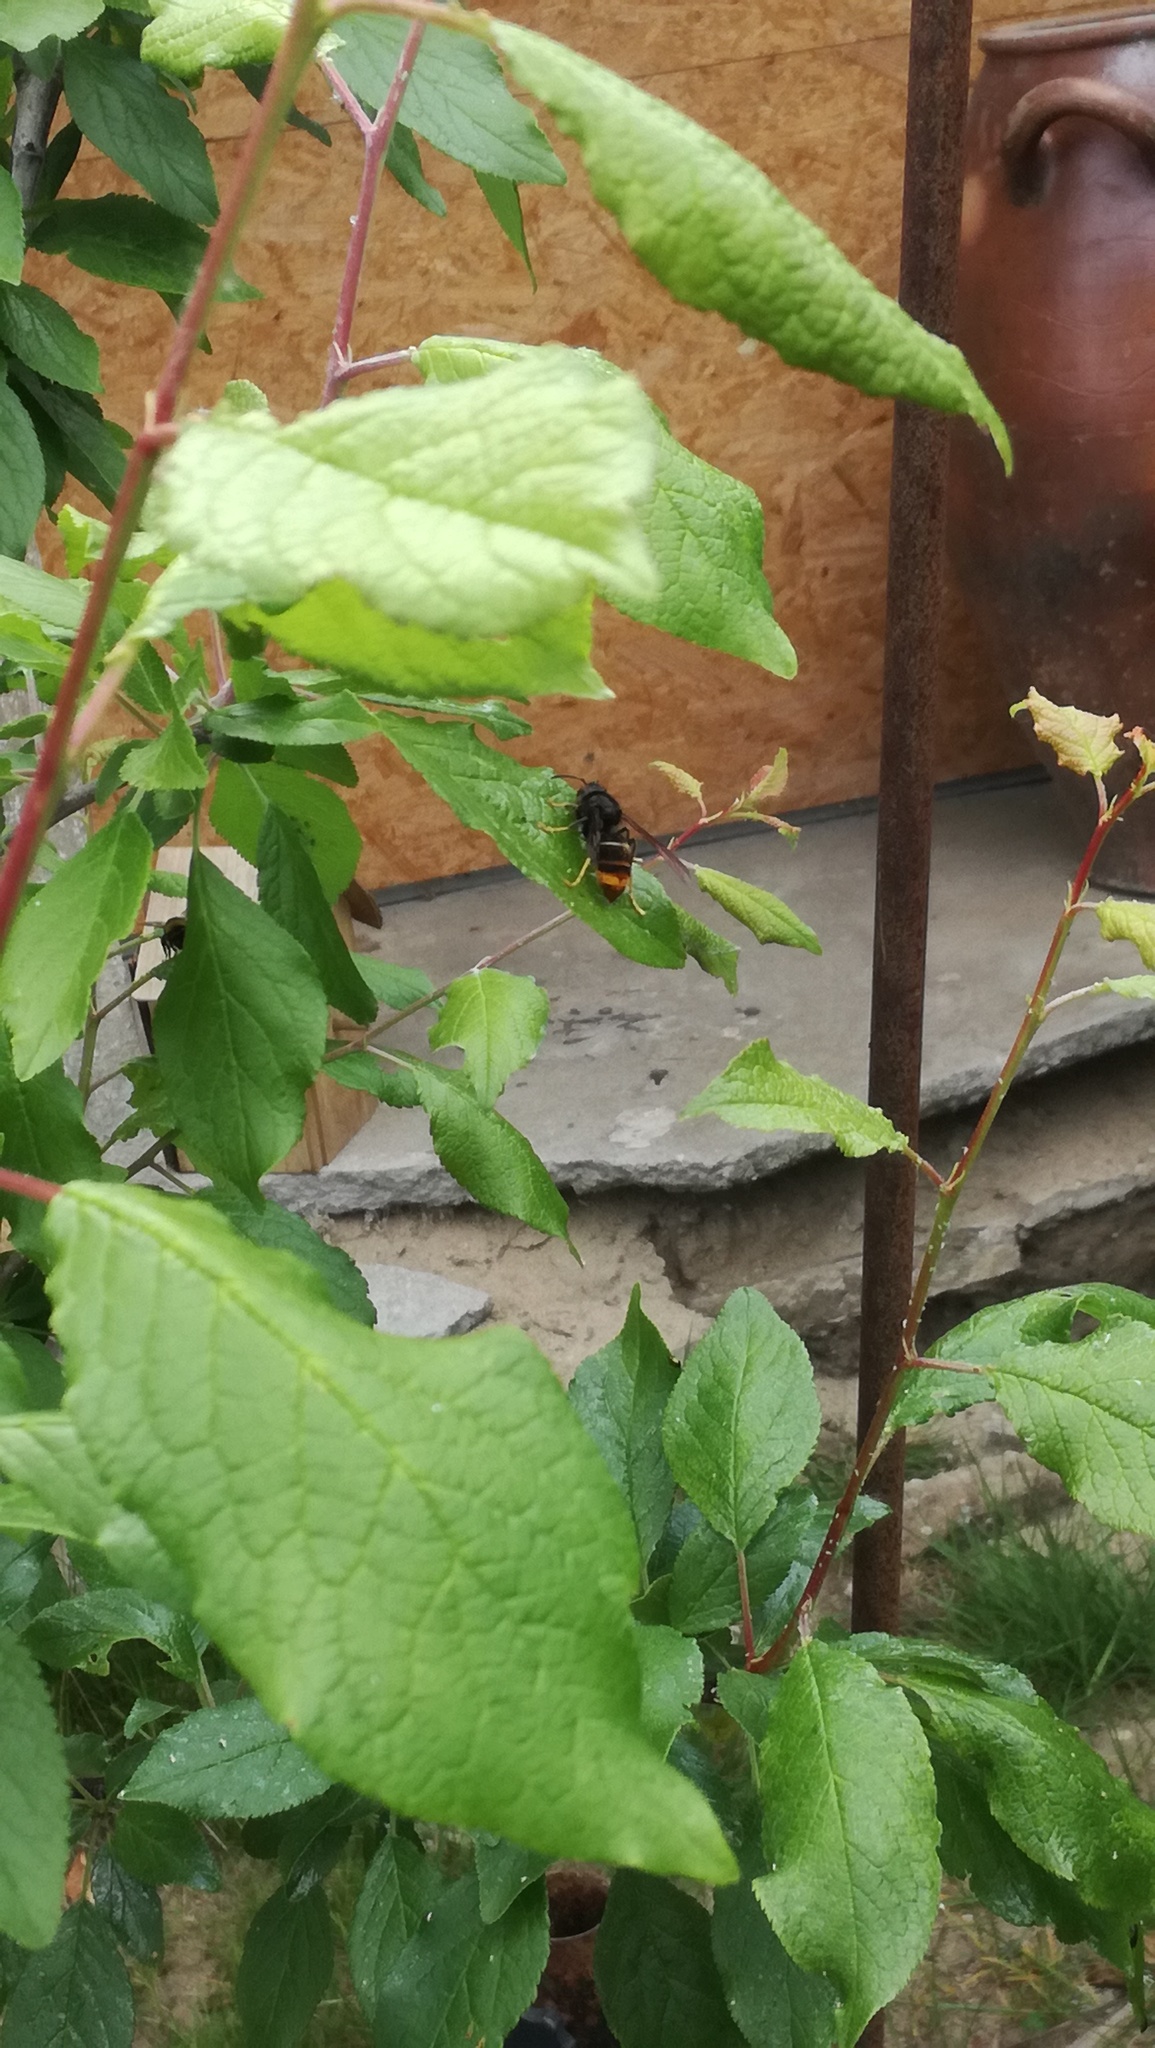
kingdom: Animalia
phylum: Arthropoda
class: Insecta
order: Hymenoptera
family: Vespidae
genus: Vespa
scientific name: Vespa velutina
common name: Asian hornet
